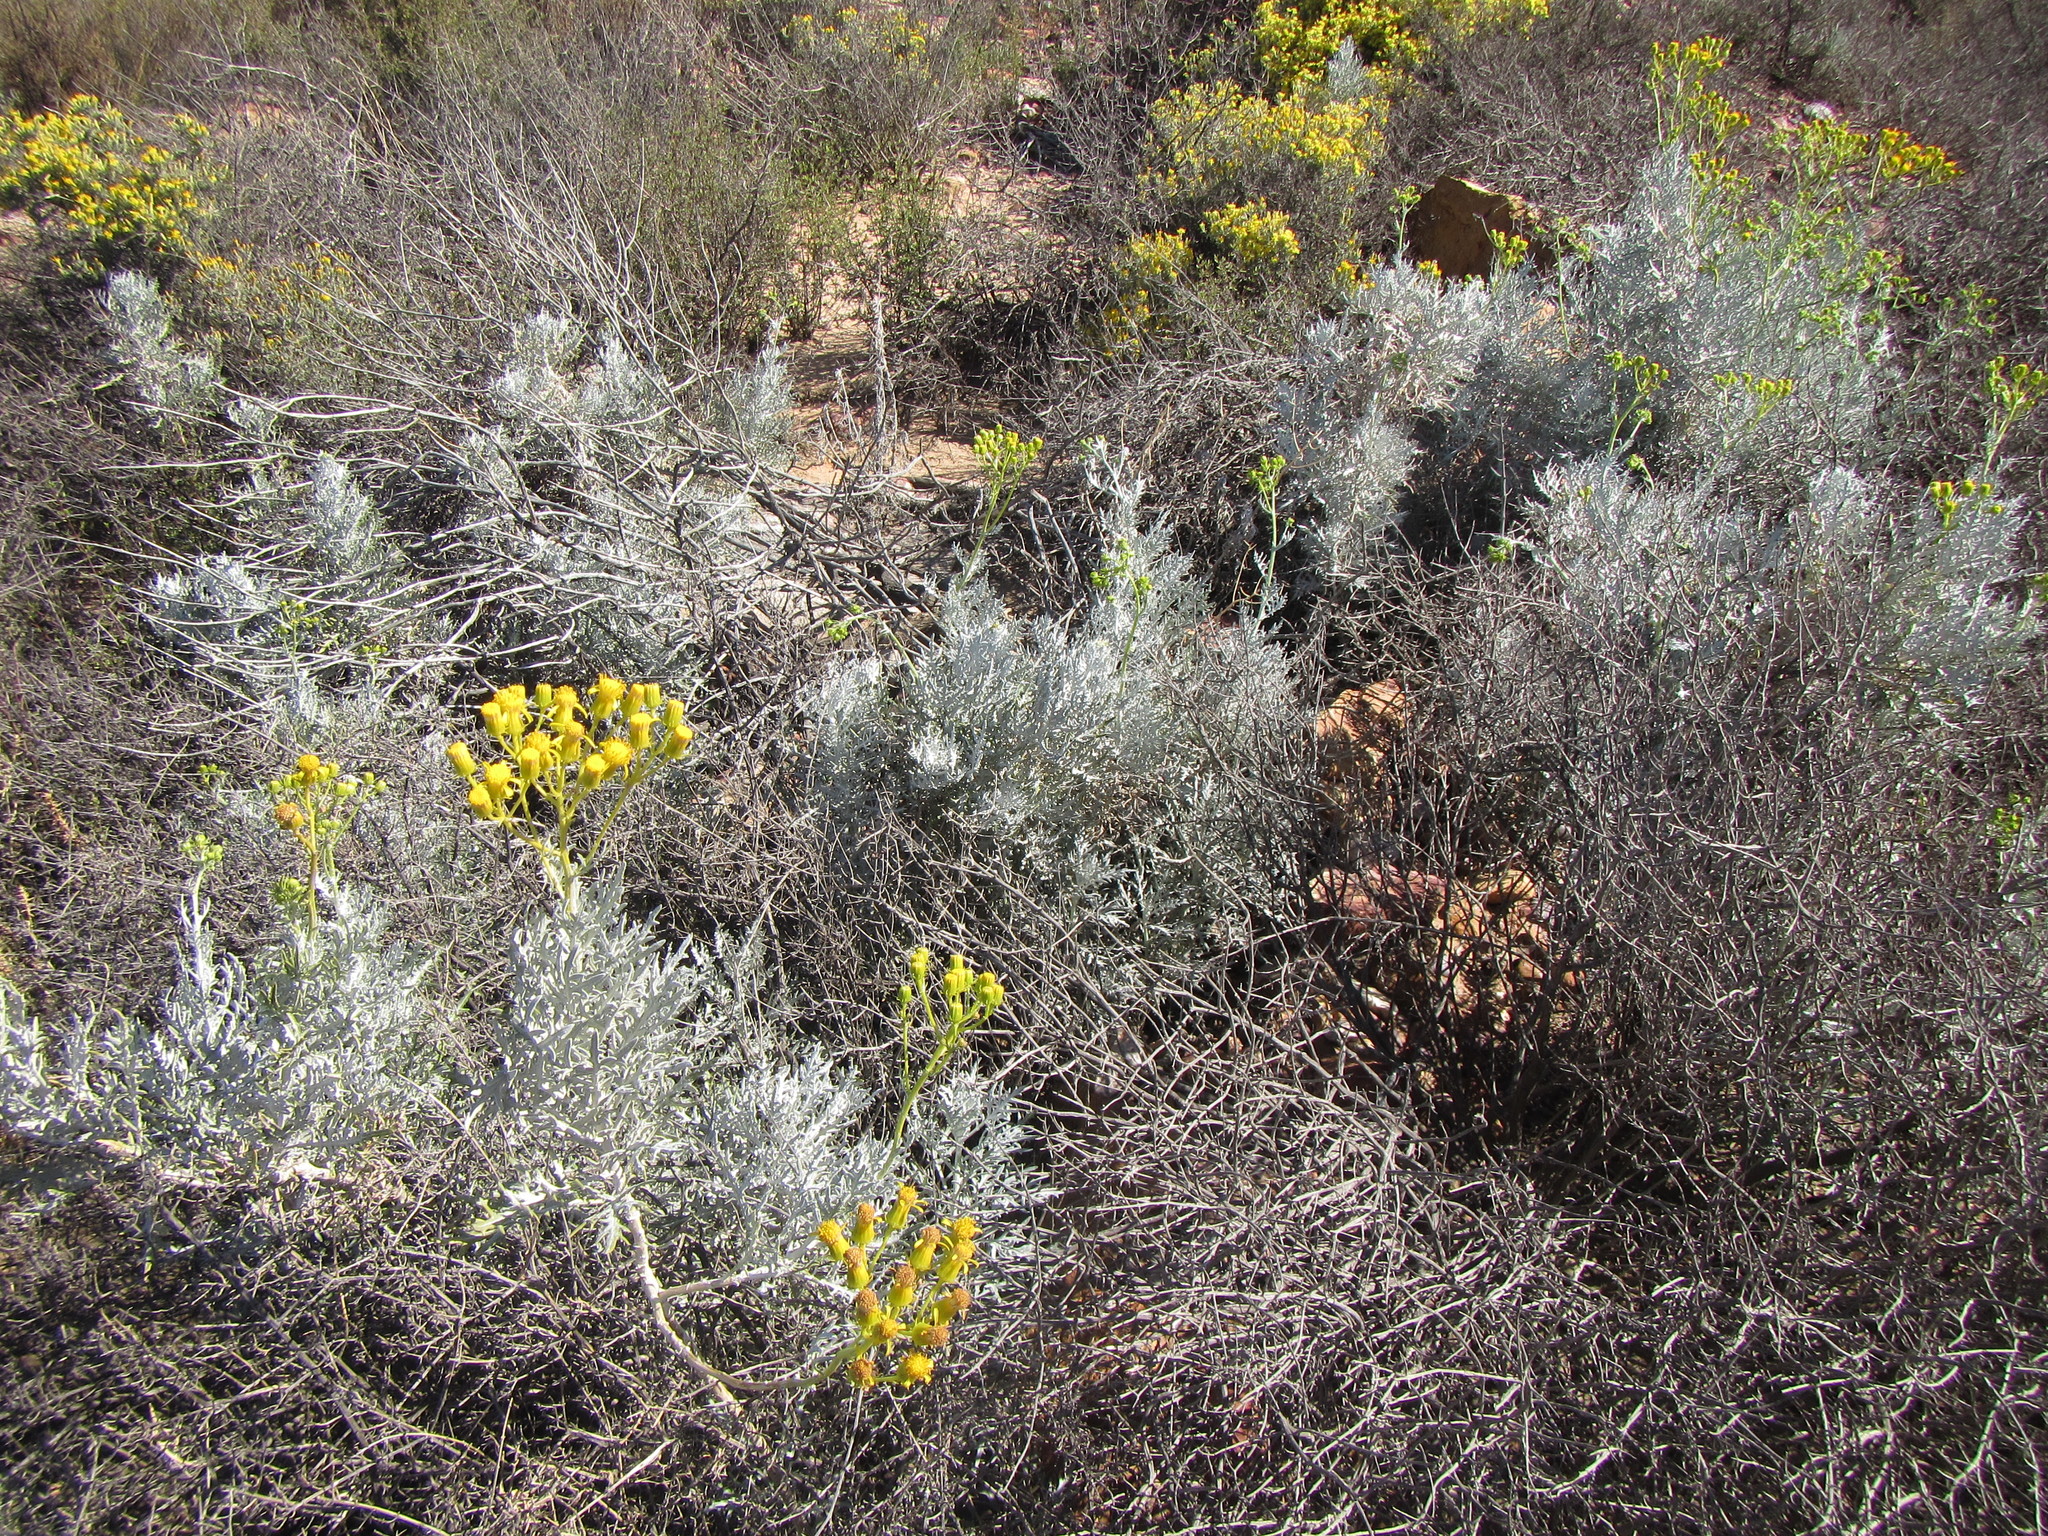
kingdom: Plantae
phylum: Tracheophyta
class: Magnoliopsida
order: Asterales
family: Asteraceae
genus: Senecio
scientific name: Senecio cinerascens
